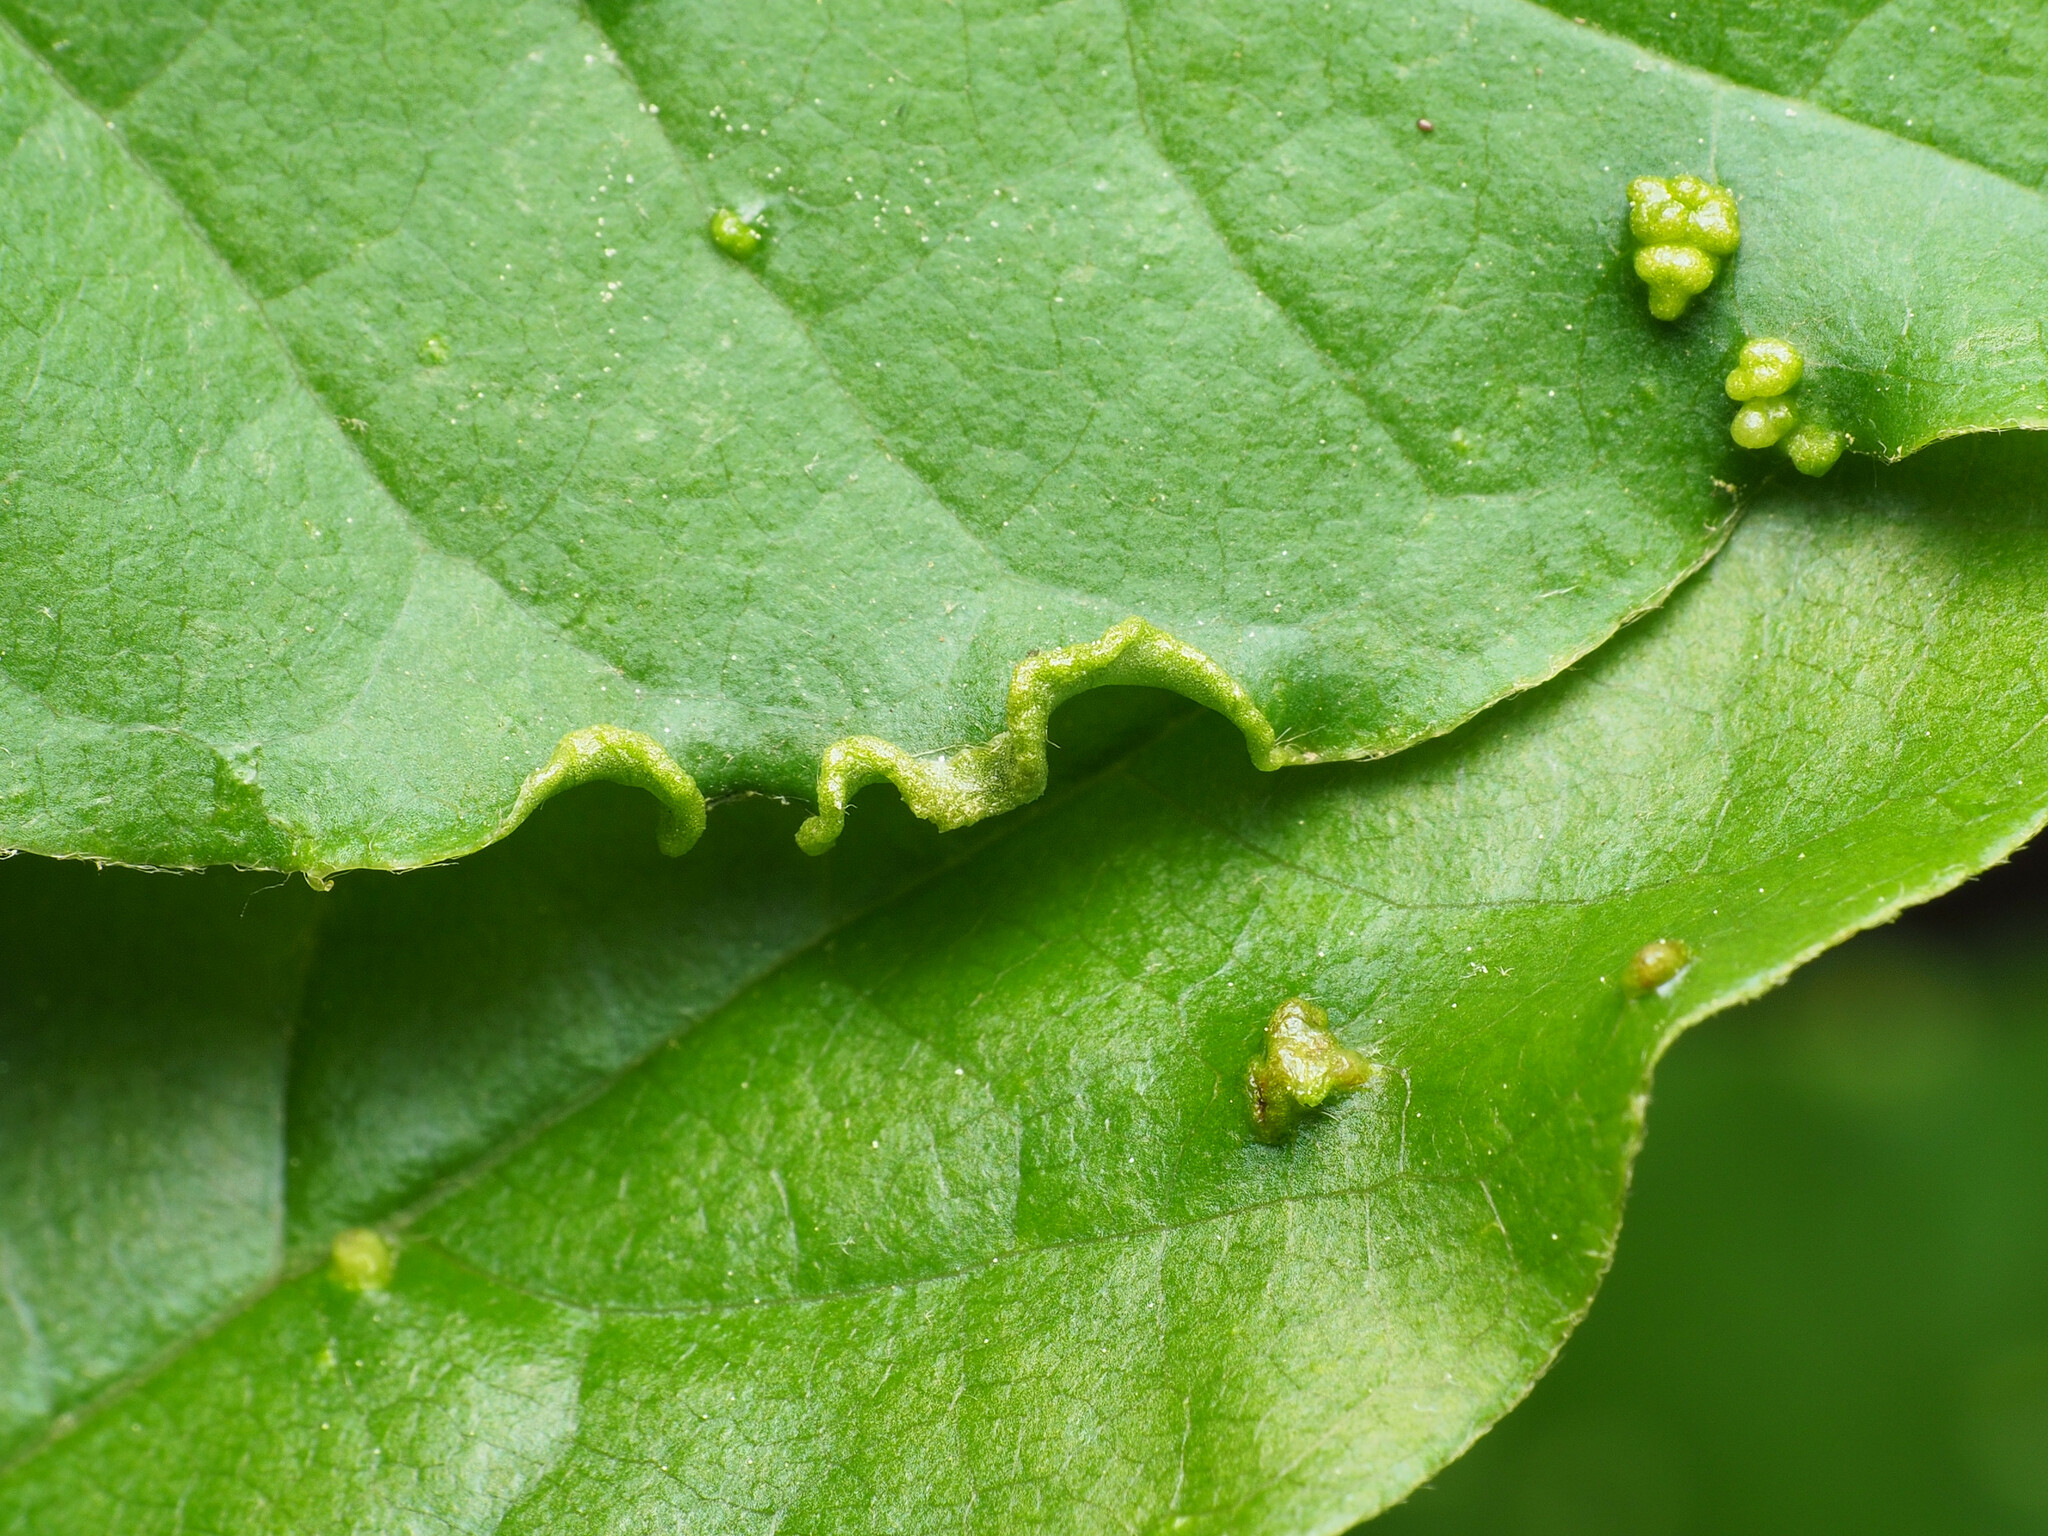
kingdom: Animalia
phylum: Arthropoda
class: Arachnida
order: Trombidiformes
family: Eriophyidae
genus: Aceria
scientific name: Aceria
